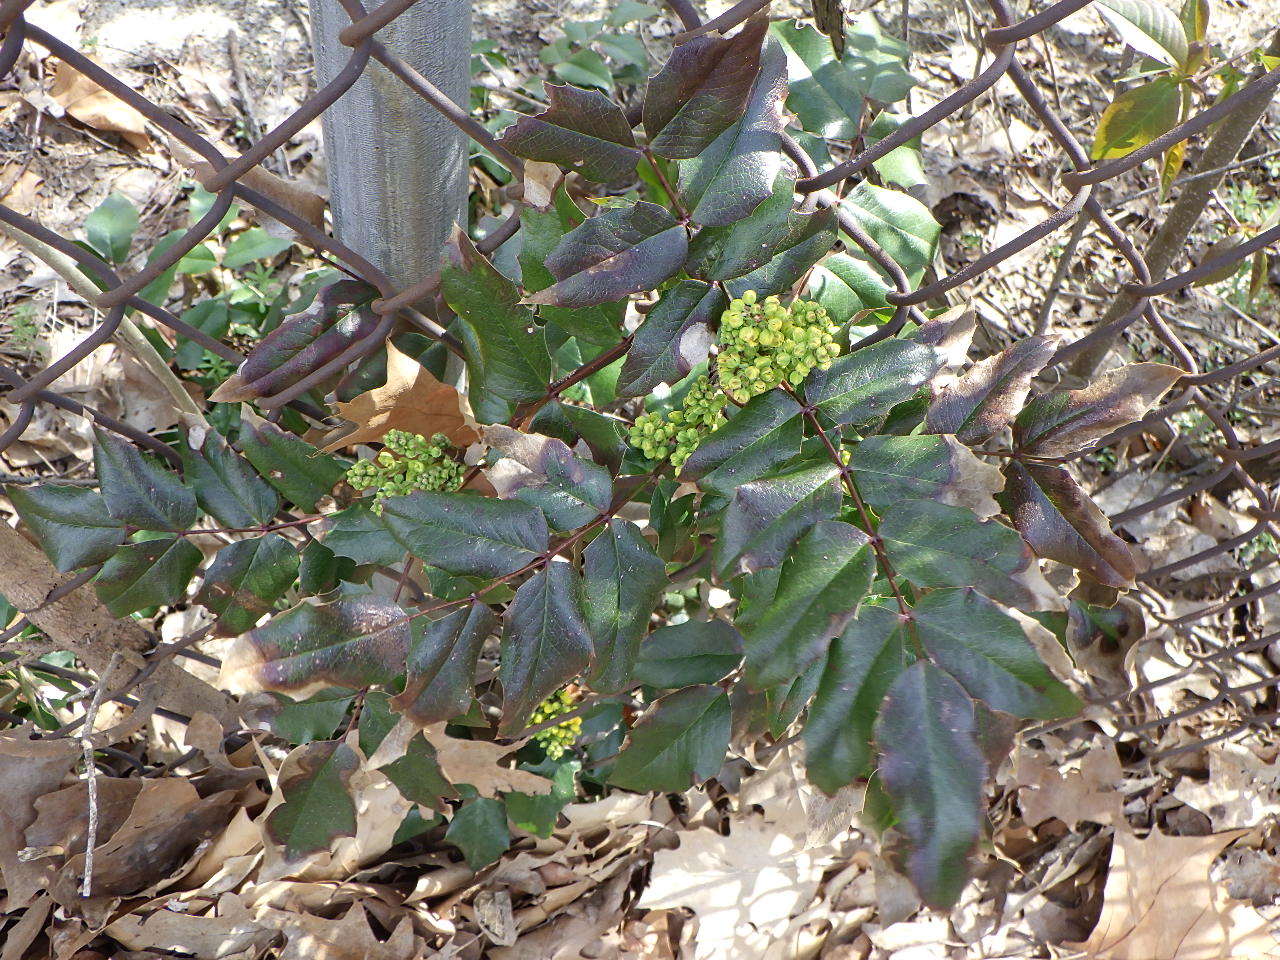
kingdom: Plantae
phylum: Tracheophyta
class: Magnoliopsida
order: Ranunculales
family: Berberidaceae
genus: Mahonia
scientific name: Mahonia aquifolium
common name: Oregon-grape
